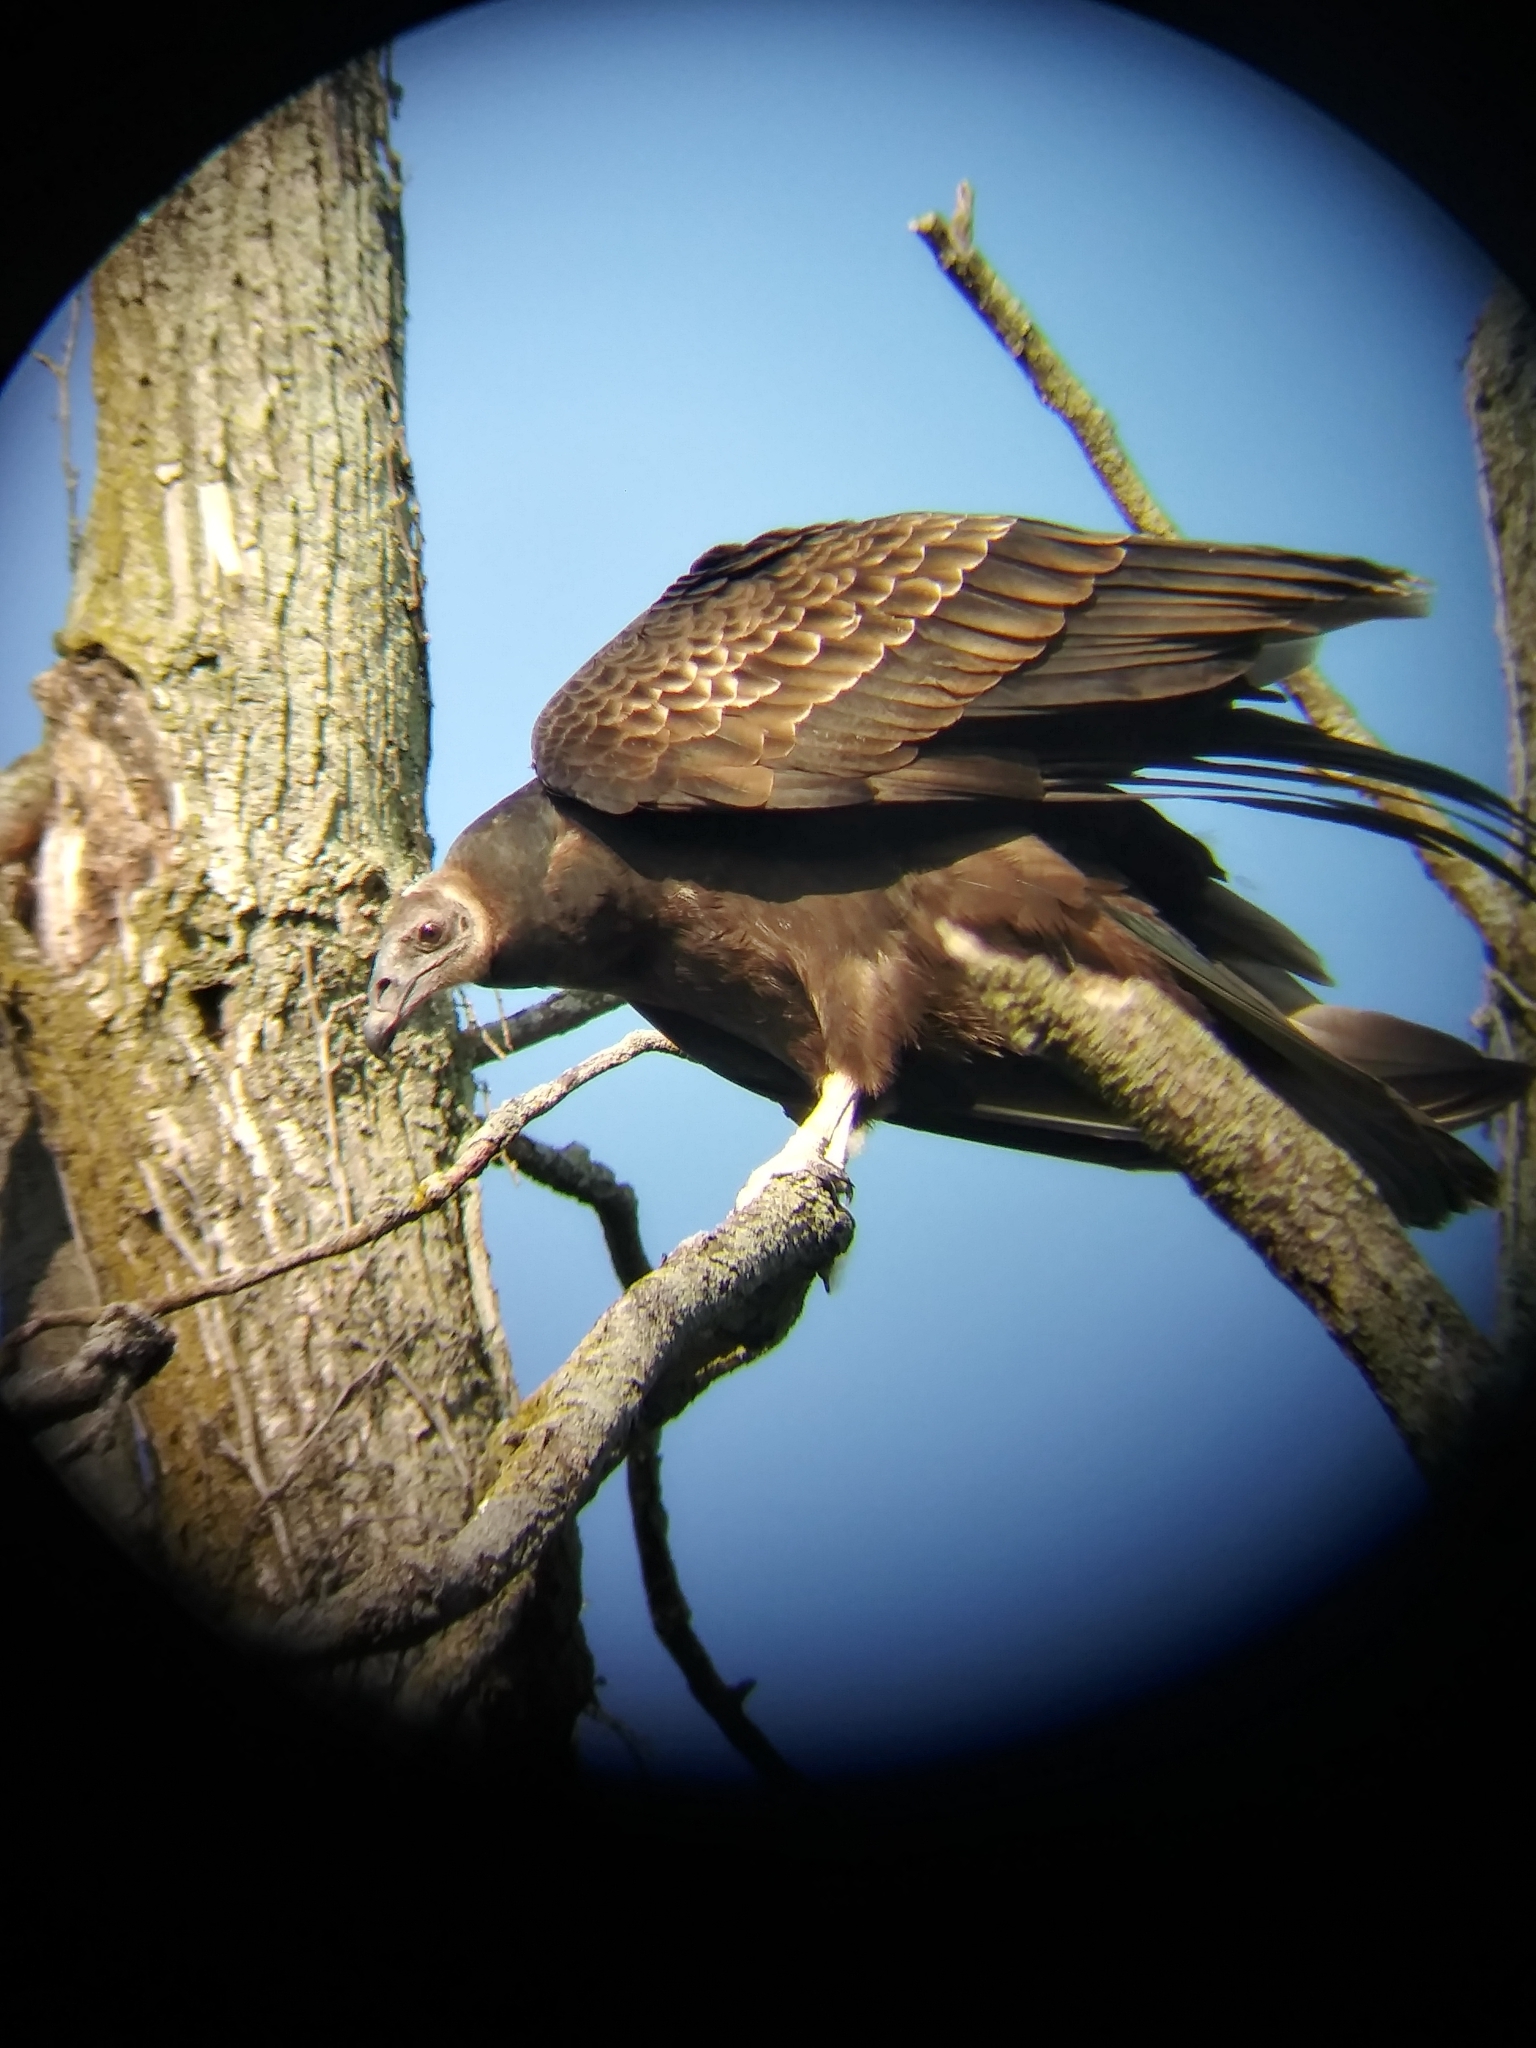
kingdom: Animalia
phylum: Chordata
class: Aves
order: Accipitriformes
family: Cathartidae
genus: Cathartes
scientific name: Cathartes aura
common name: Turkey vulture
